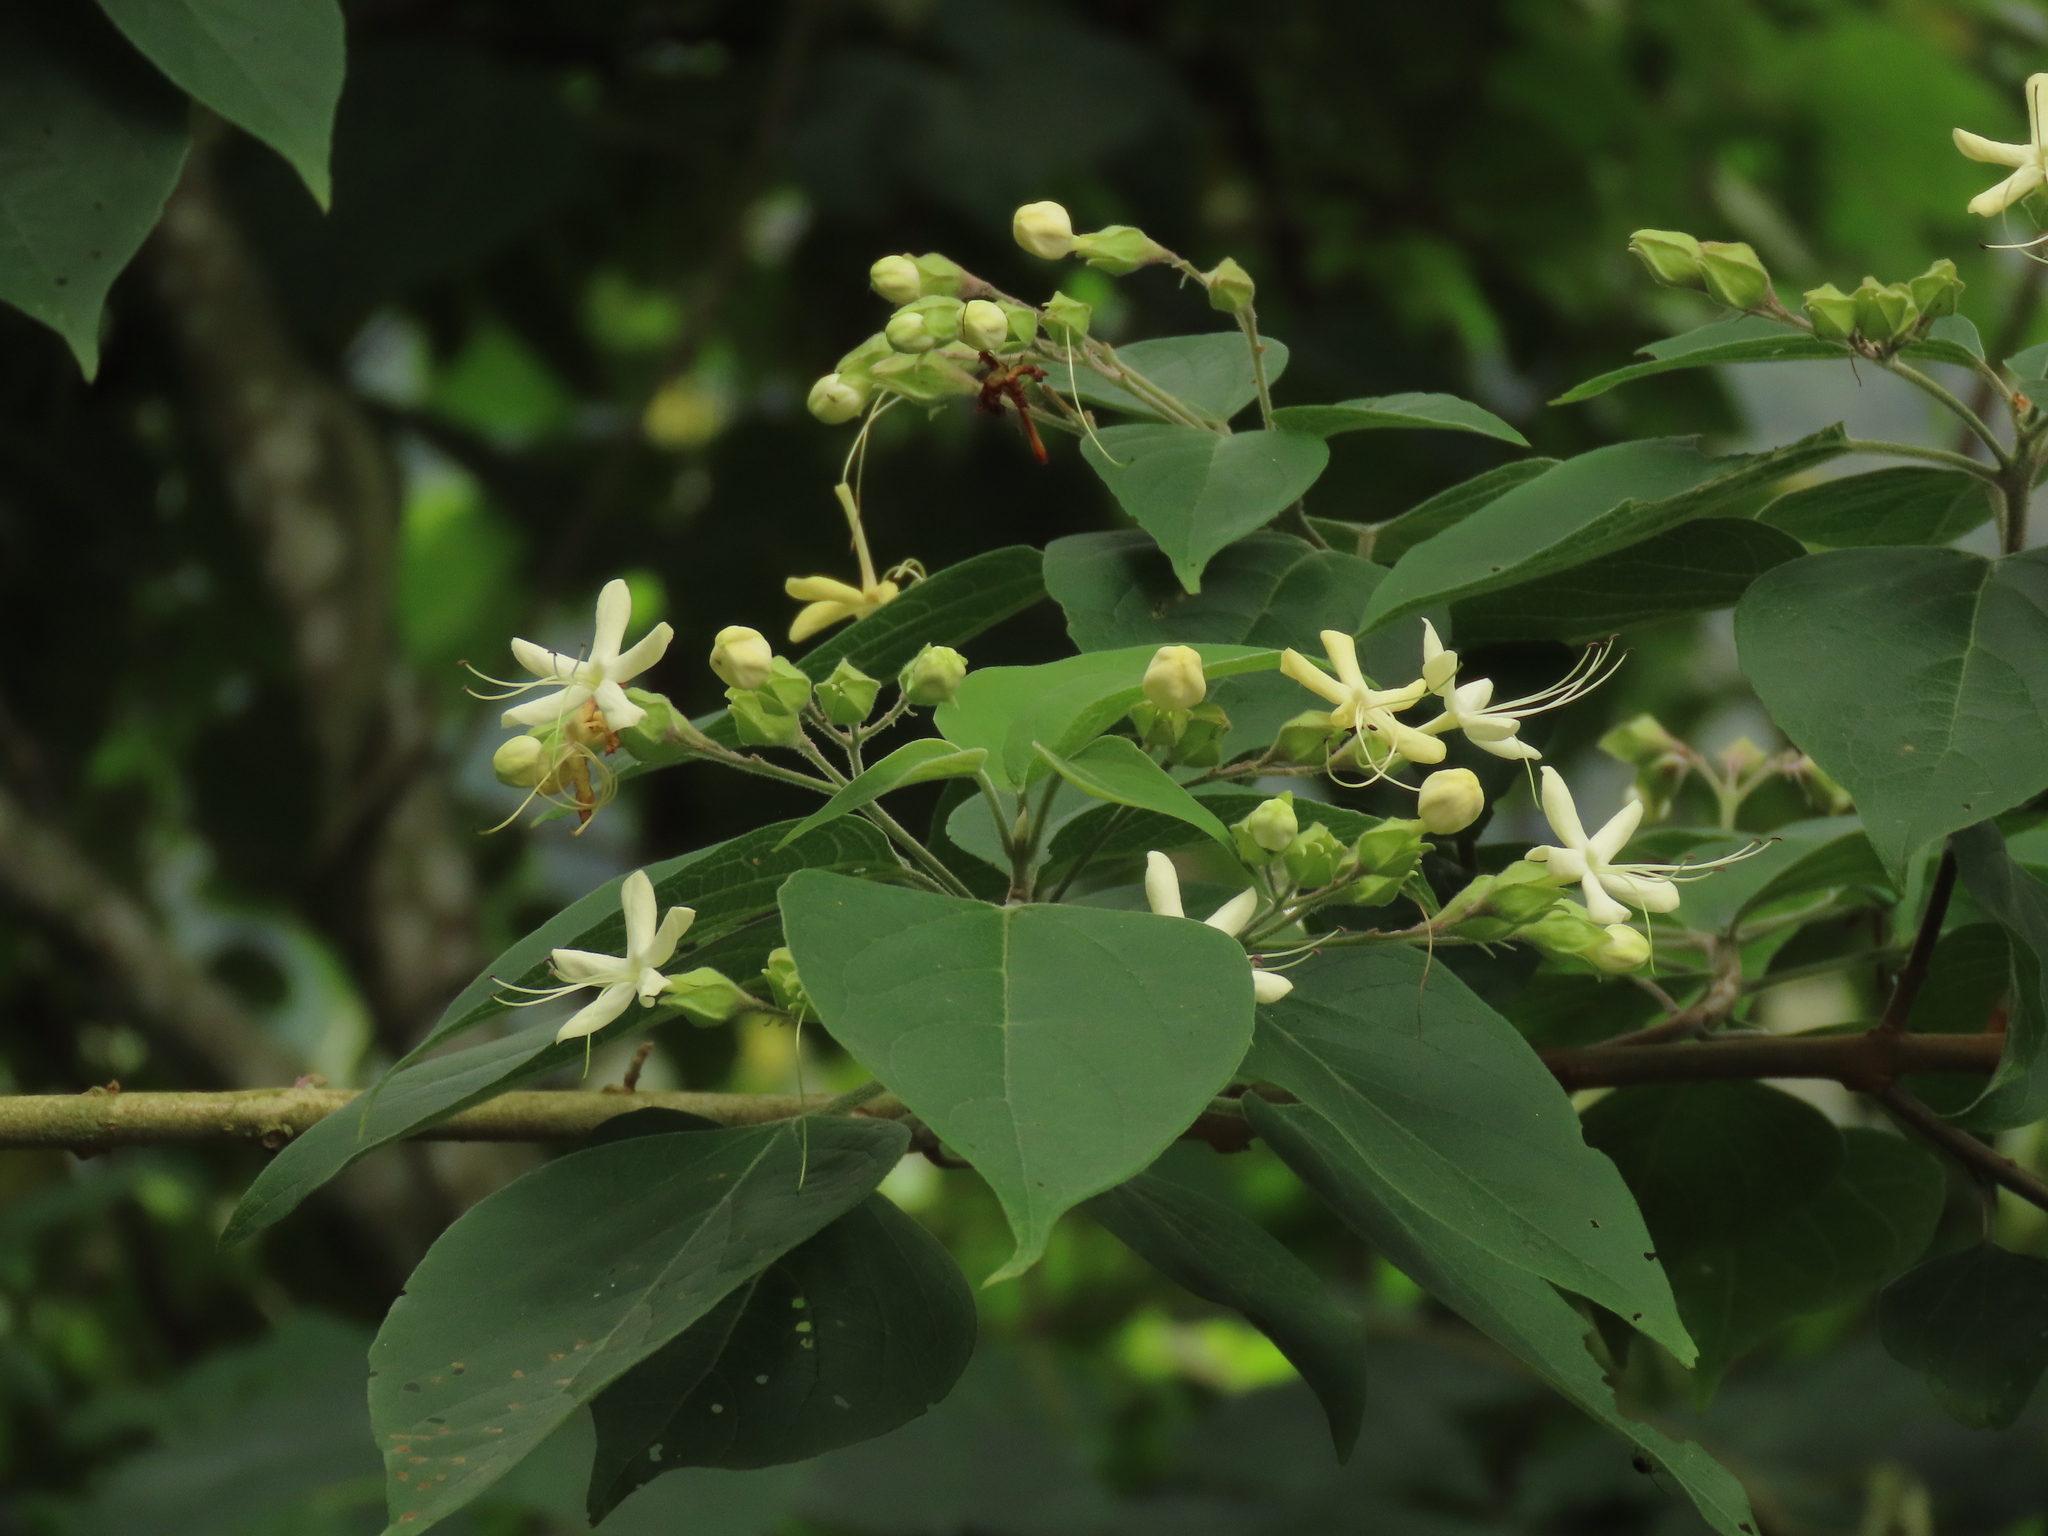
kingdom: Plantae
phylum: Tracheophyta
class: Magnoliopsida
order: Lamiales
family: Lamiaceae
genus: Clerodendrum
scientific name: Clerodendrum trichotomum
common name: Harlequin glorybower
